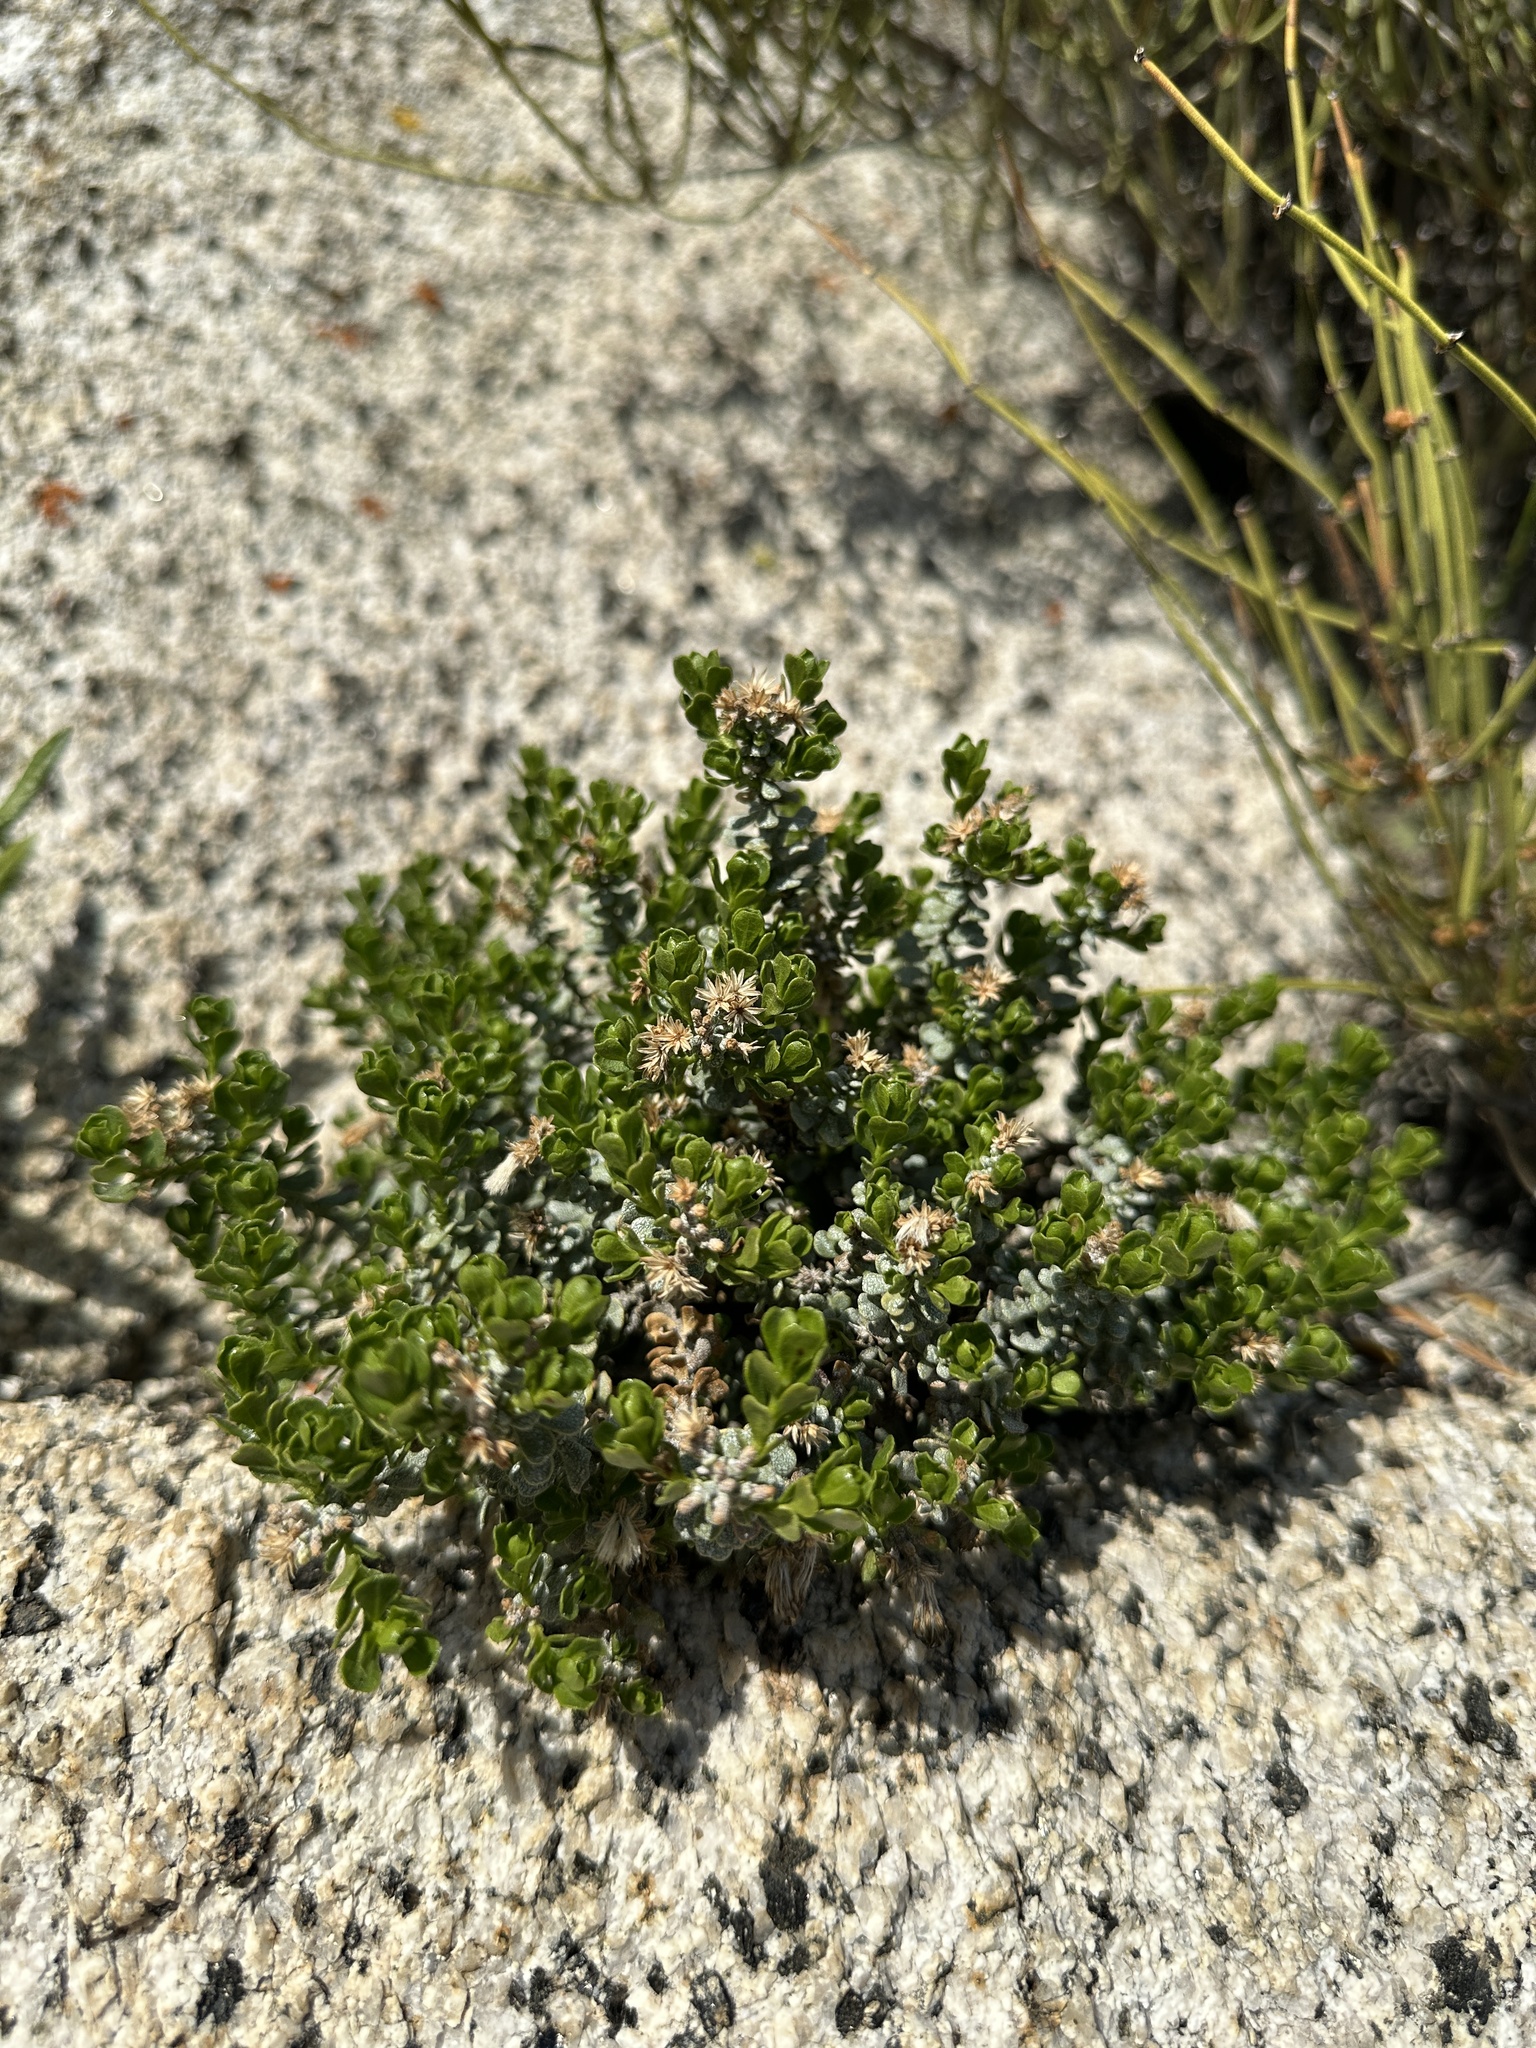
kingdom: Plantae
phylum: Tracheophyta
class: Magnoliopsida
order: Asterales
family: Asteraceae
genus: Ericameria
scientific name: Ericameria cuneata
